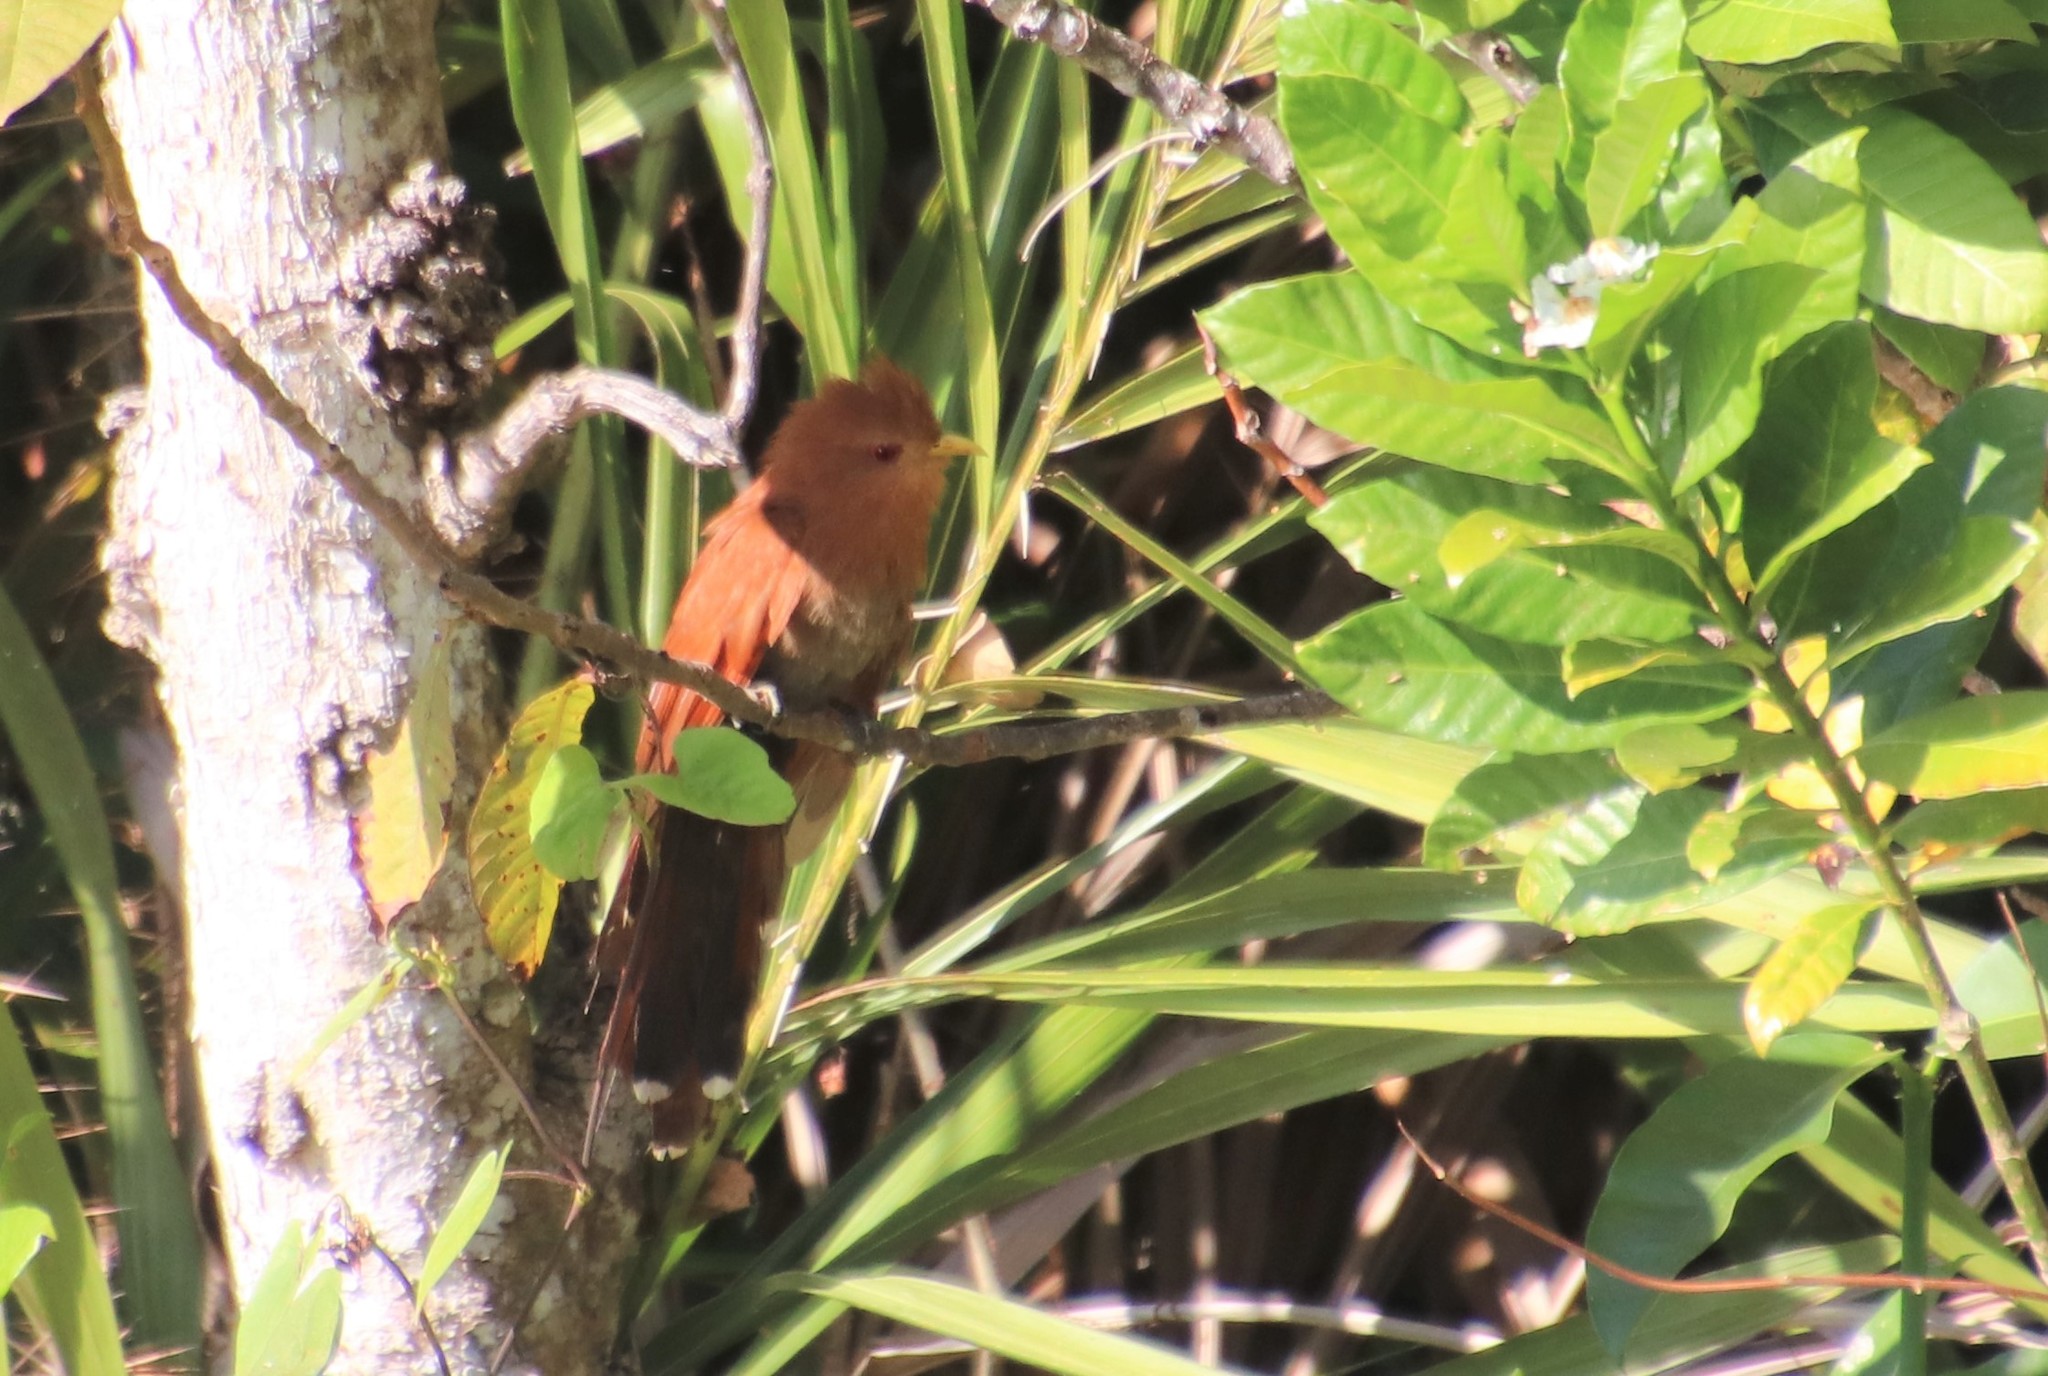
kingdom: Animalia
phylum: Chordata
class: Aves
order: Cuculiformes
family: Cuculidae
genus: Piaya
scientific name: Piaya minuta
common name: Little cuckoo
